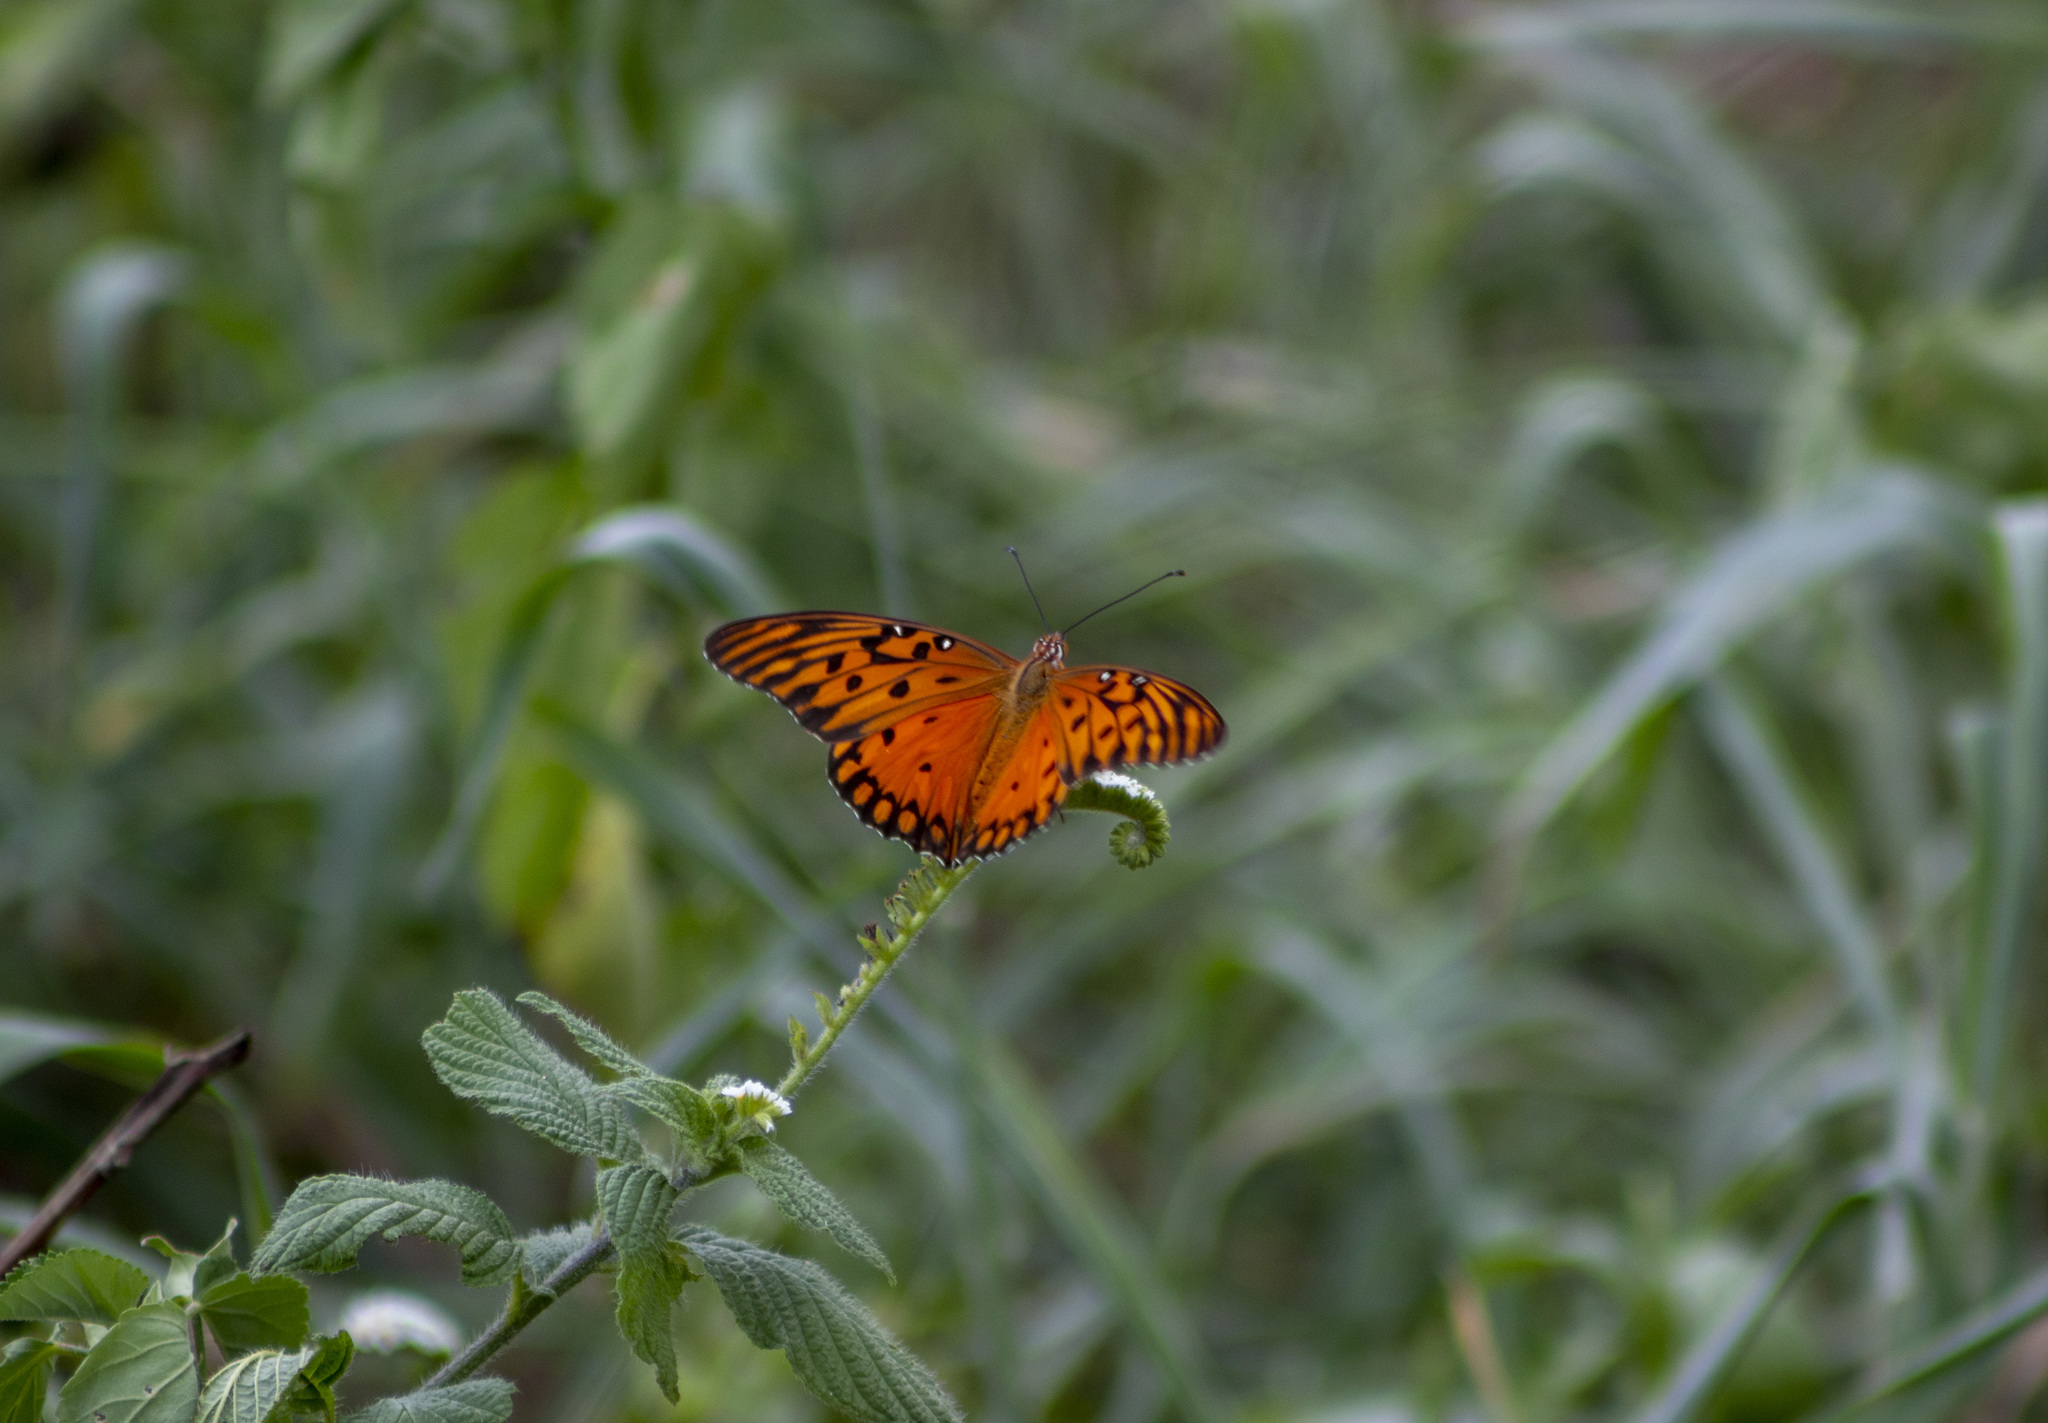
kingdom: Animalia
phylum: Arthropoda
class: Insecta
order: Lepidoptera
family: Nymphalidae
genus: Dione
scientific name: Dione vanillae
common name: Gulf fritillary
